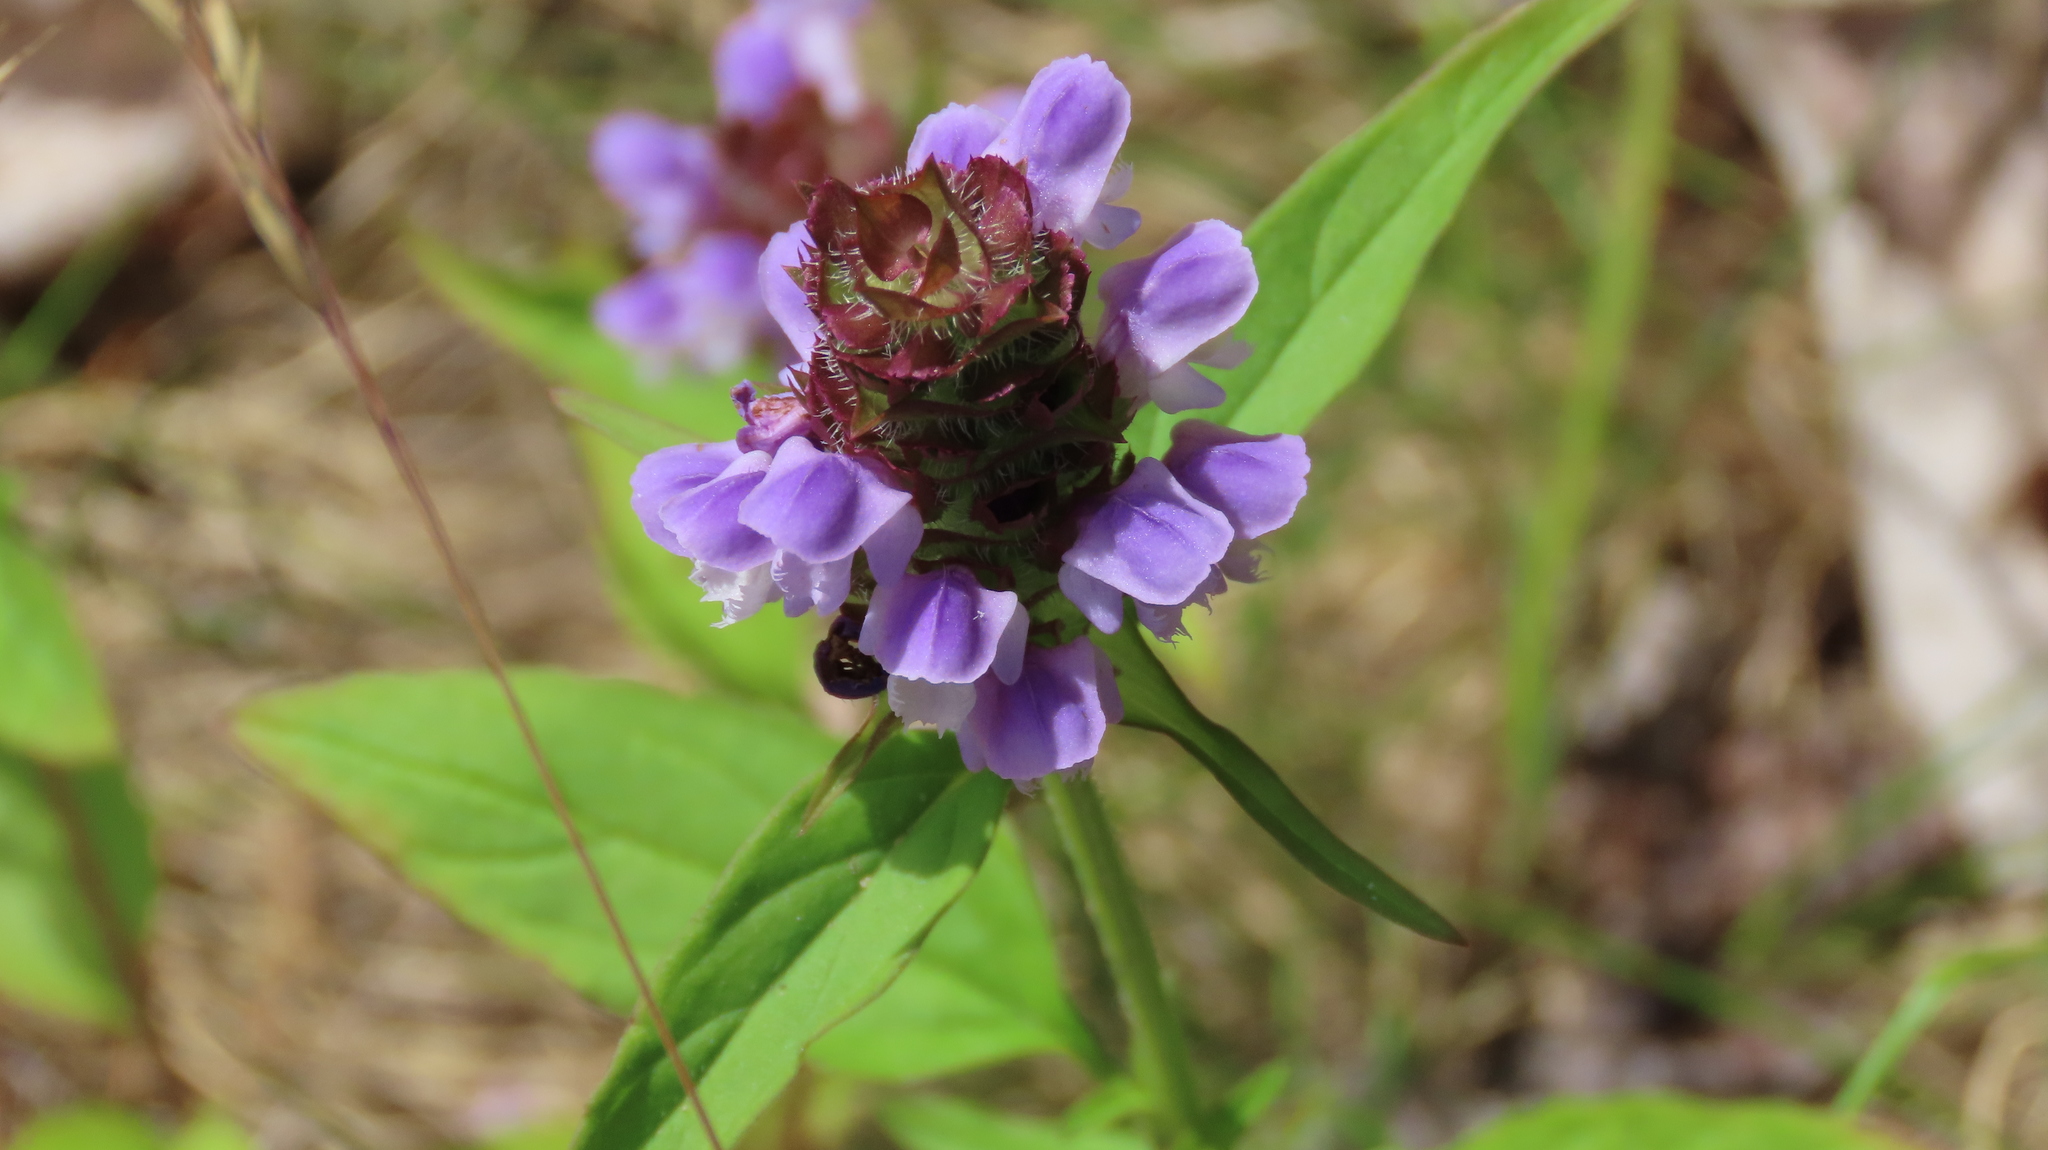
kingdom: Plantae
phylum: Tracheophyta
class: Magnoliopsida
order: Lamiales
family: Lamiaceae
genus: Prunella
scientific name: Prunella vulgaris
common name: Heal-all
